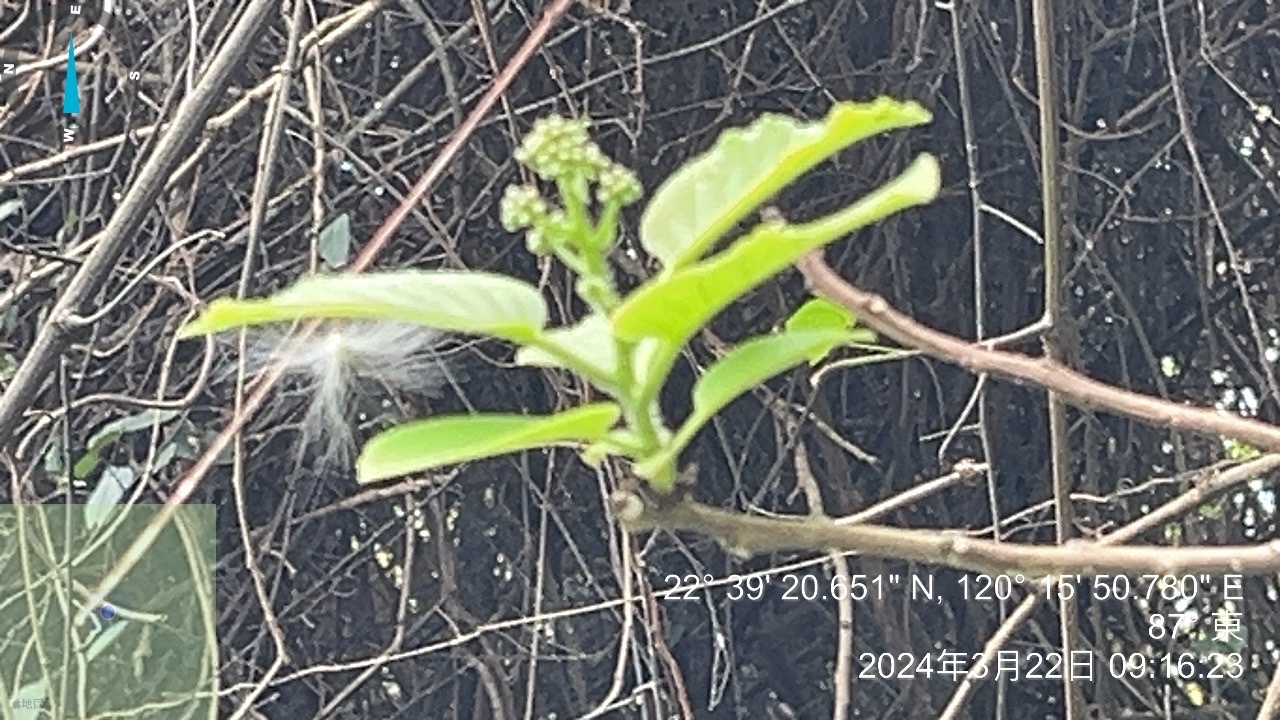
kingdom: Plantae
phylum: Tracheophyta
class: Magnoliopsida
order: Boraginales
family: Ehretiaceae
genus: Ehretia
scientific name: Ehretia resinosa
